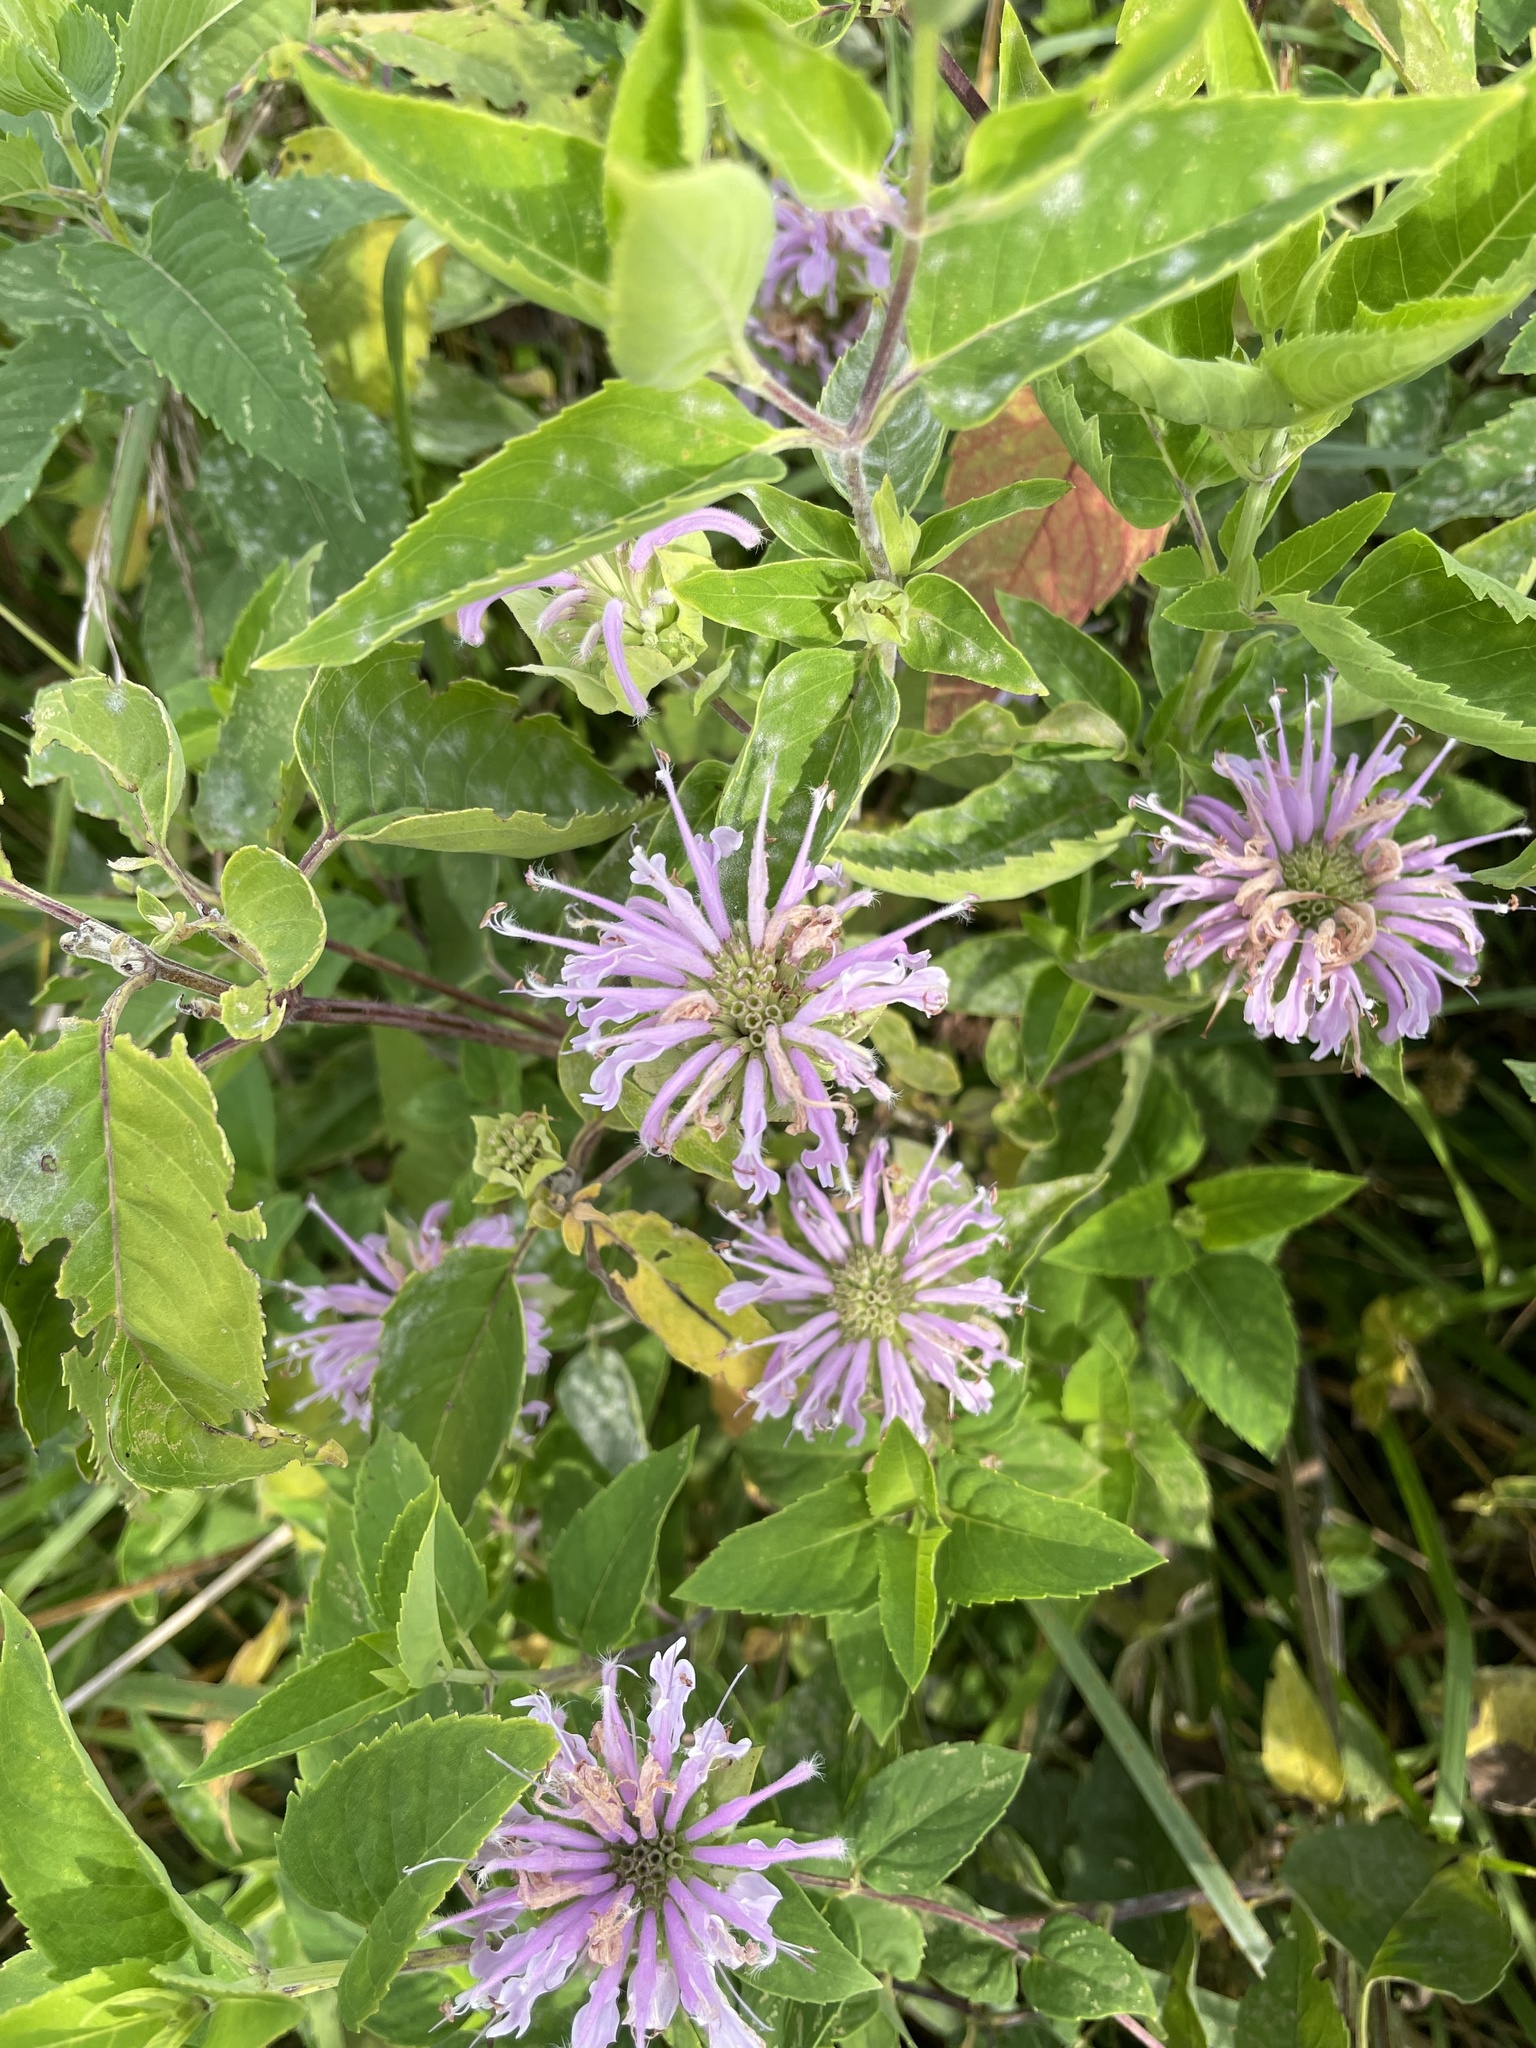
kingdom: Plantae
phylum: Tracheophyta
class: Magnoliopsida
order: Lamiales
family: Lamiaceae
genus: Monarda
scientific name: Monarda fistulosa
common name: Purple beebalm
